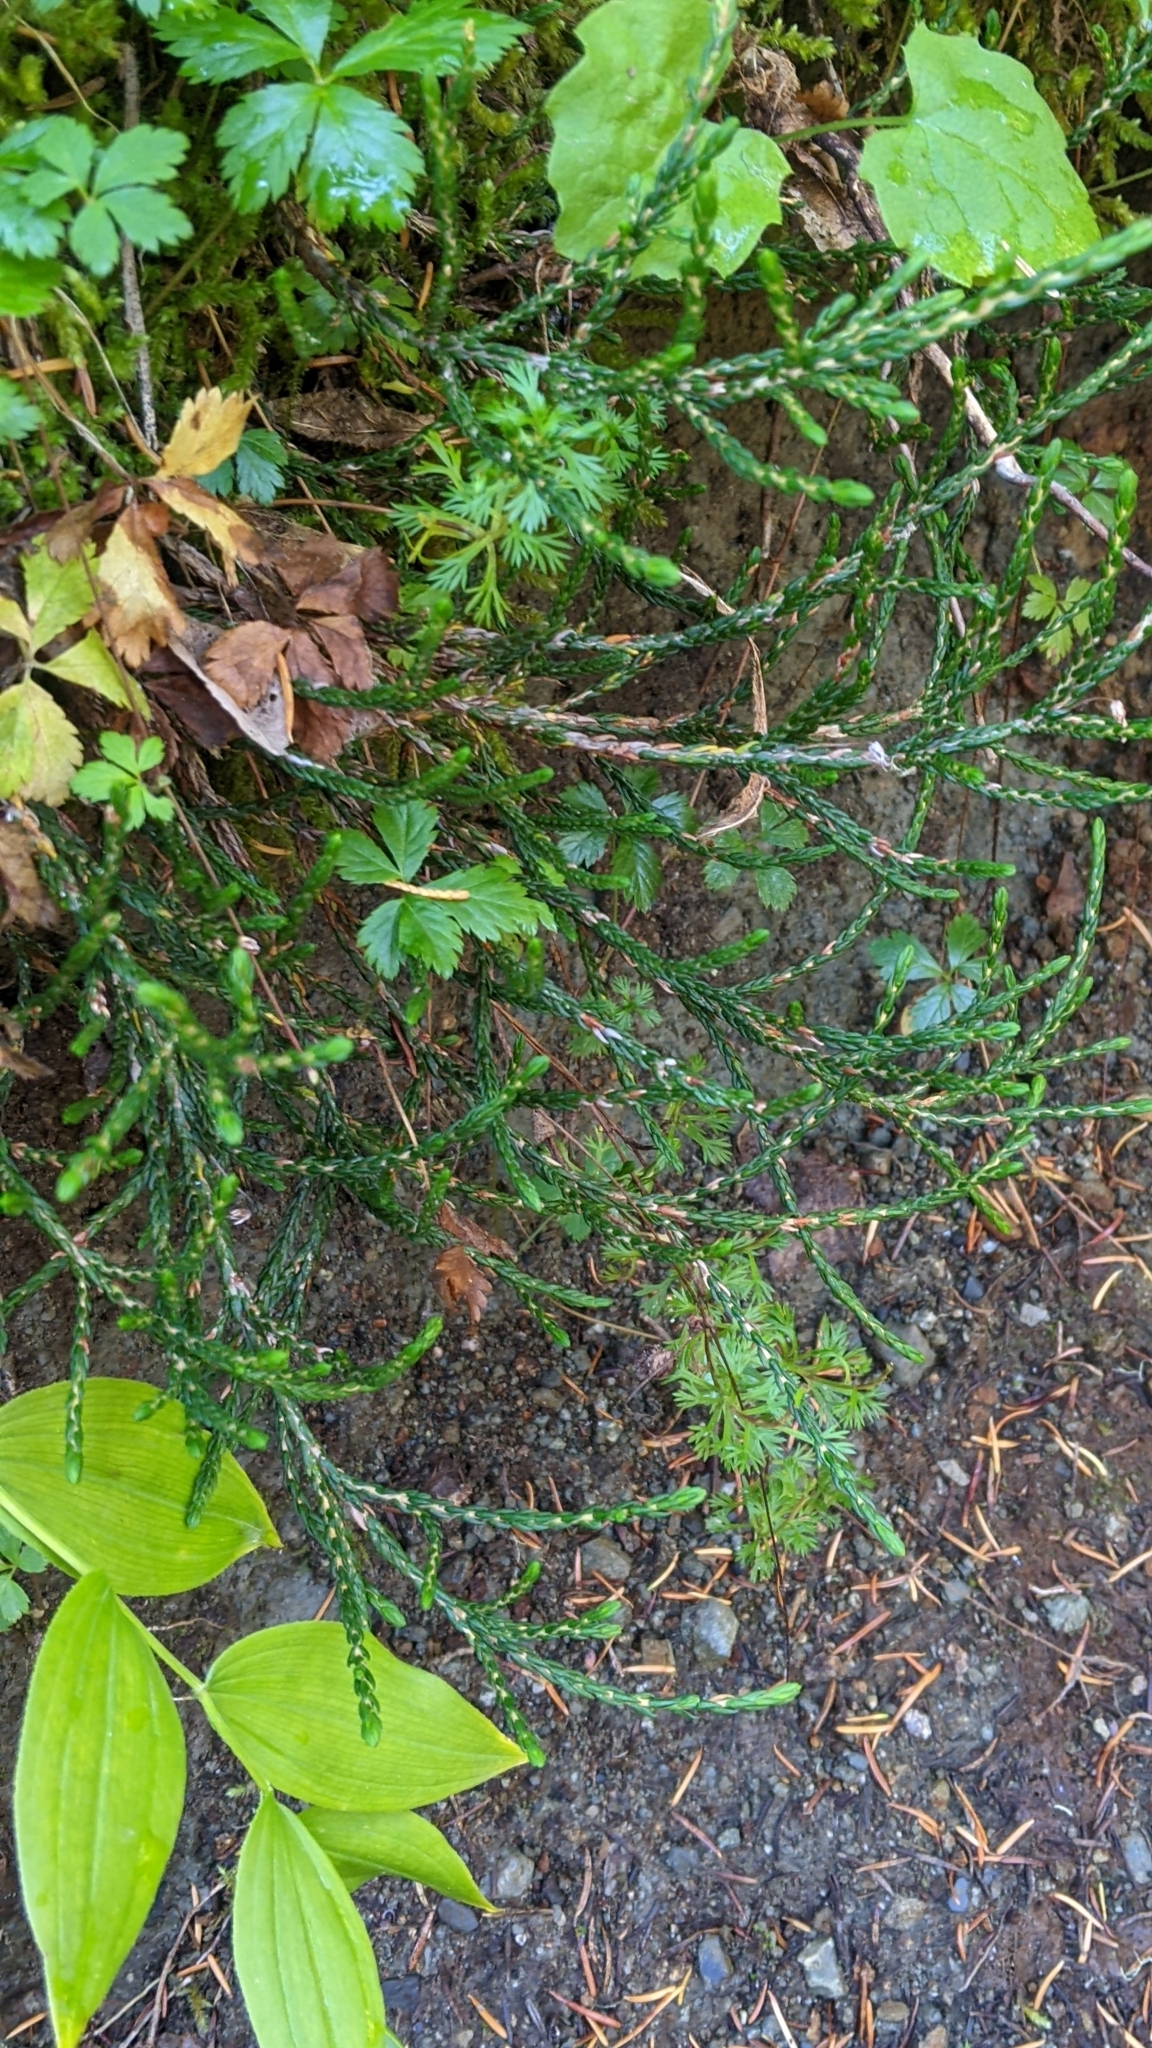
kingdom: Plantae
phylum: Tracheophyta
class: Magnoliopsida
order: Ericales
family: Ericaceae
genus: Cassiope
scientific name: Cassiope mertensiana
